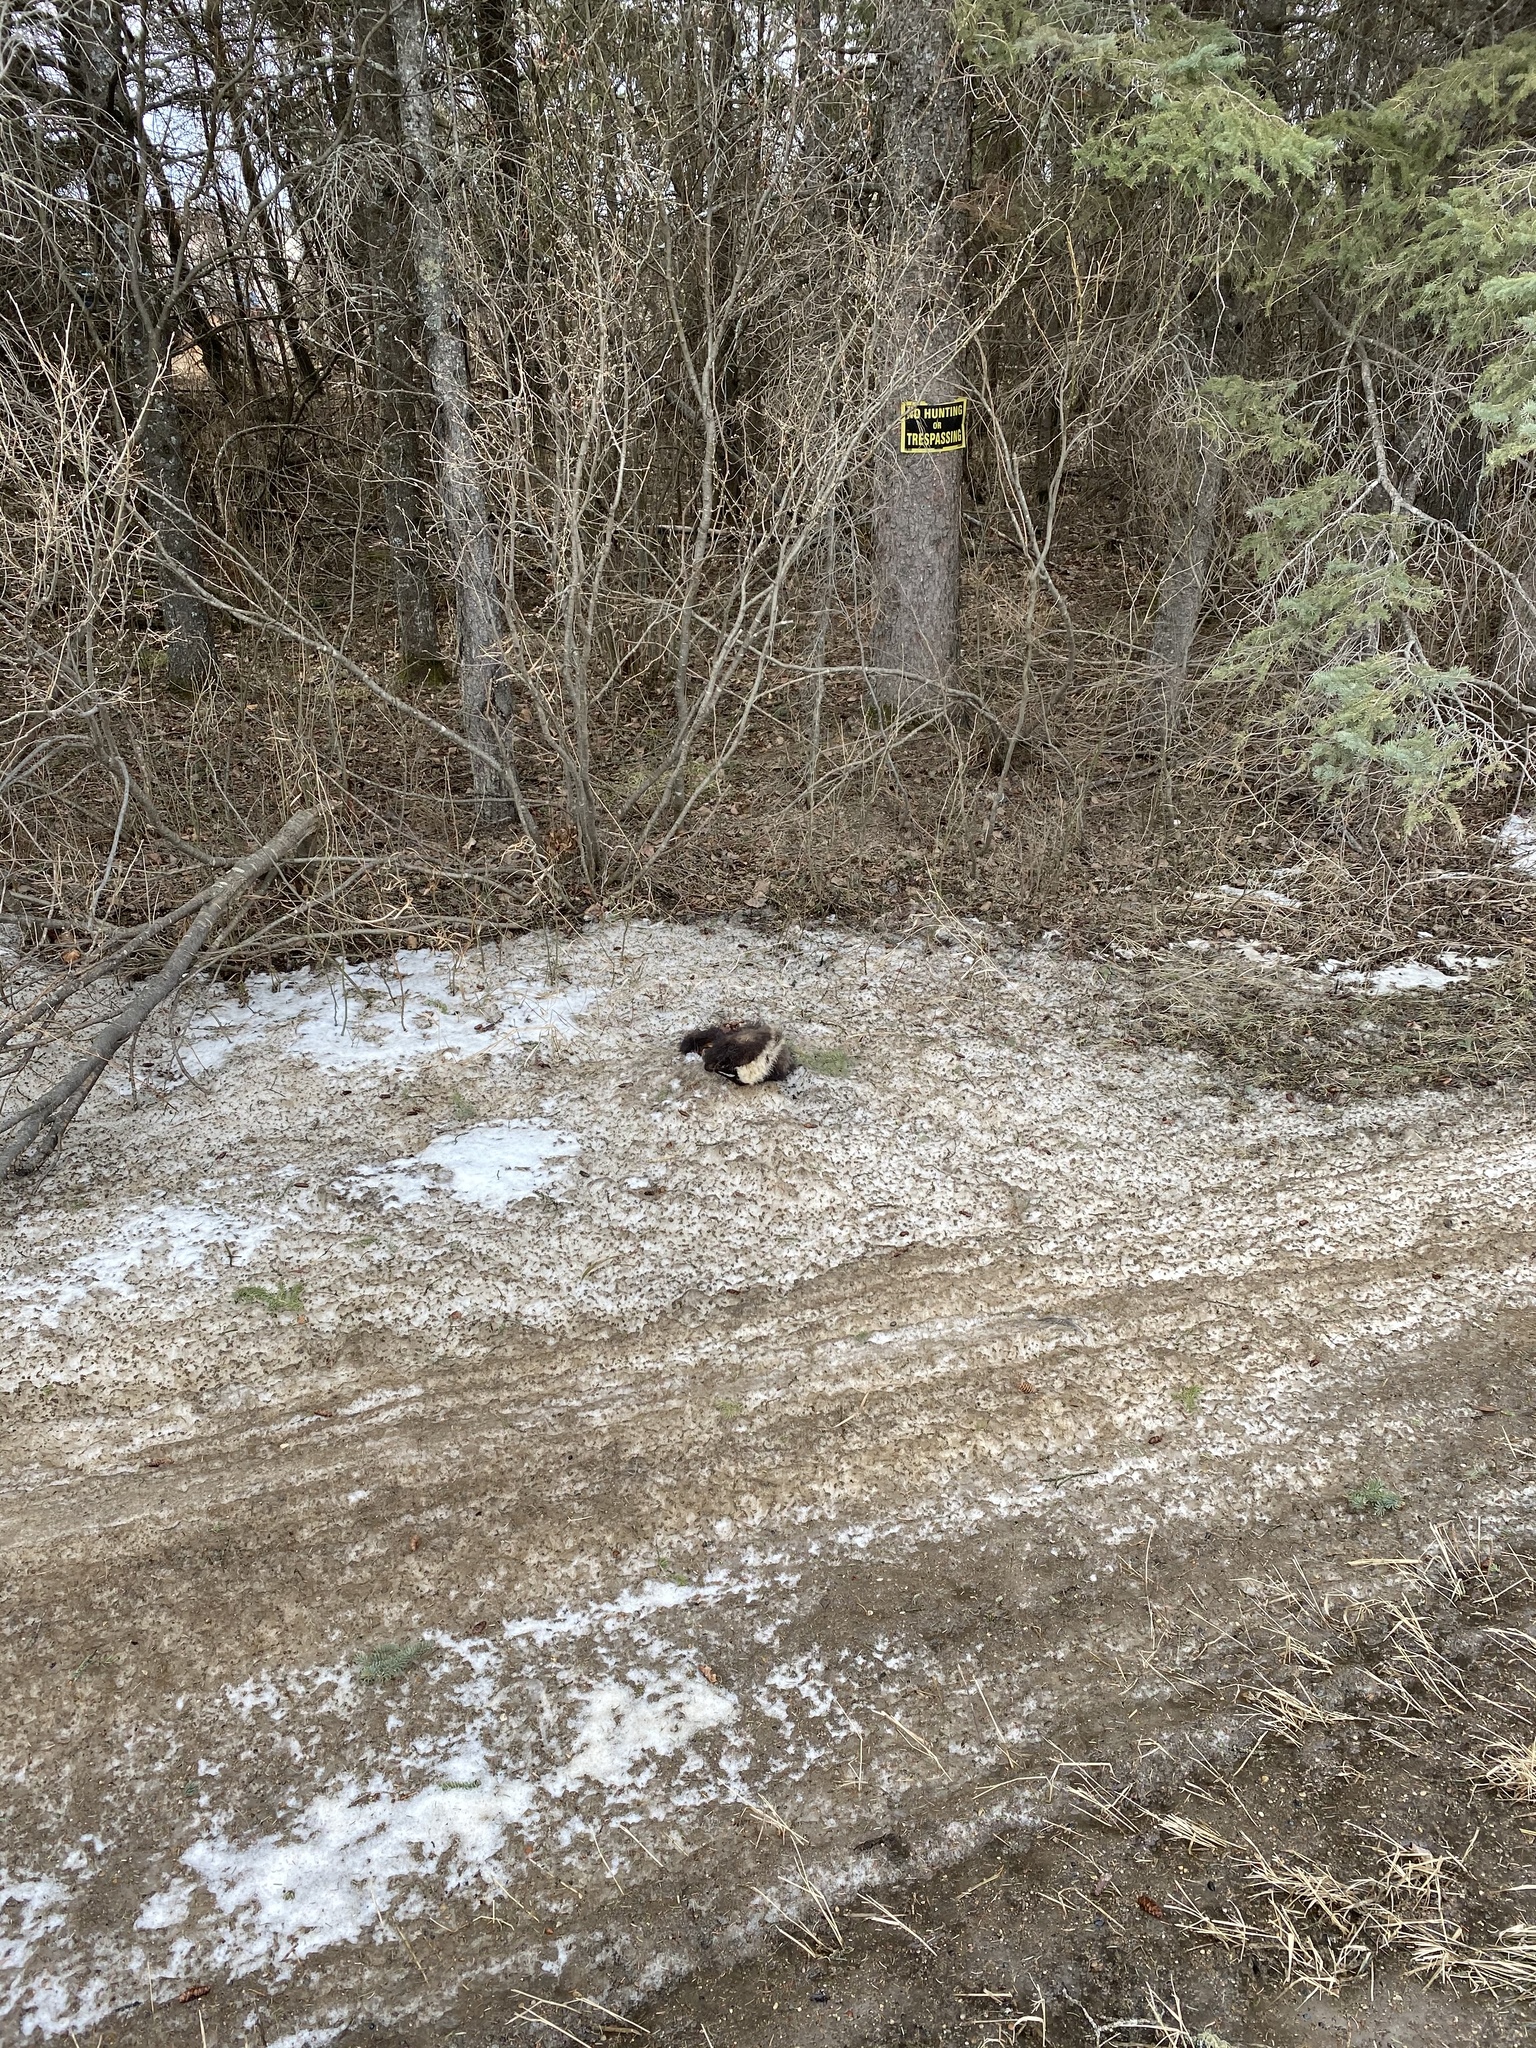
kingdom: Animalia
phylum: Chordata
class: Mammalia
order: Carnivora
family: Mephitidae
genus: Mephitis
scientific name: Mephitis mephitis
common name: Striped skunk
